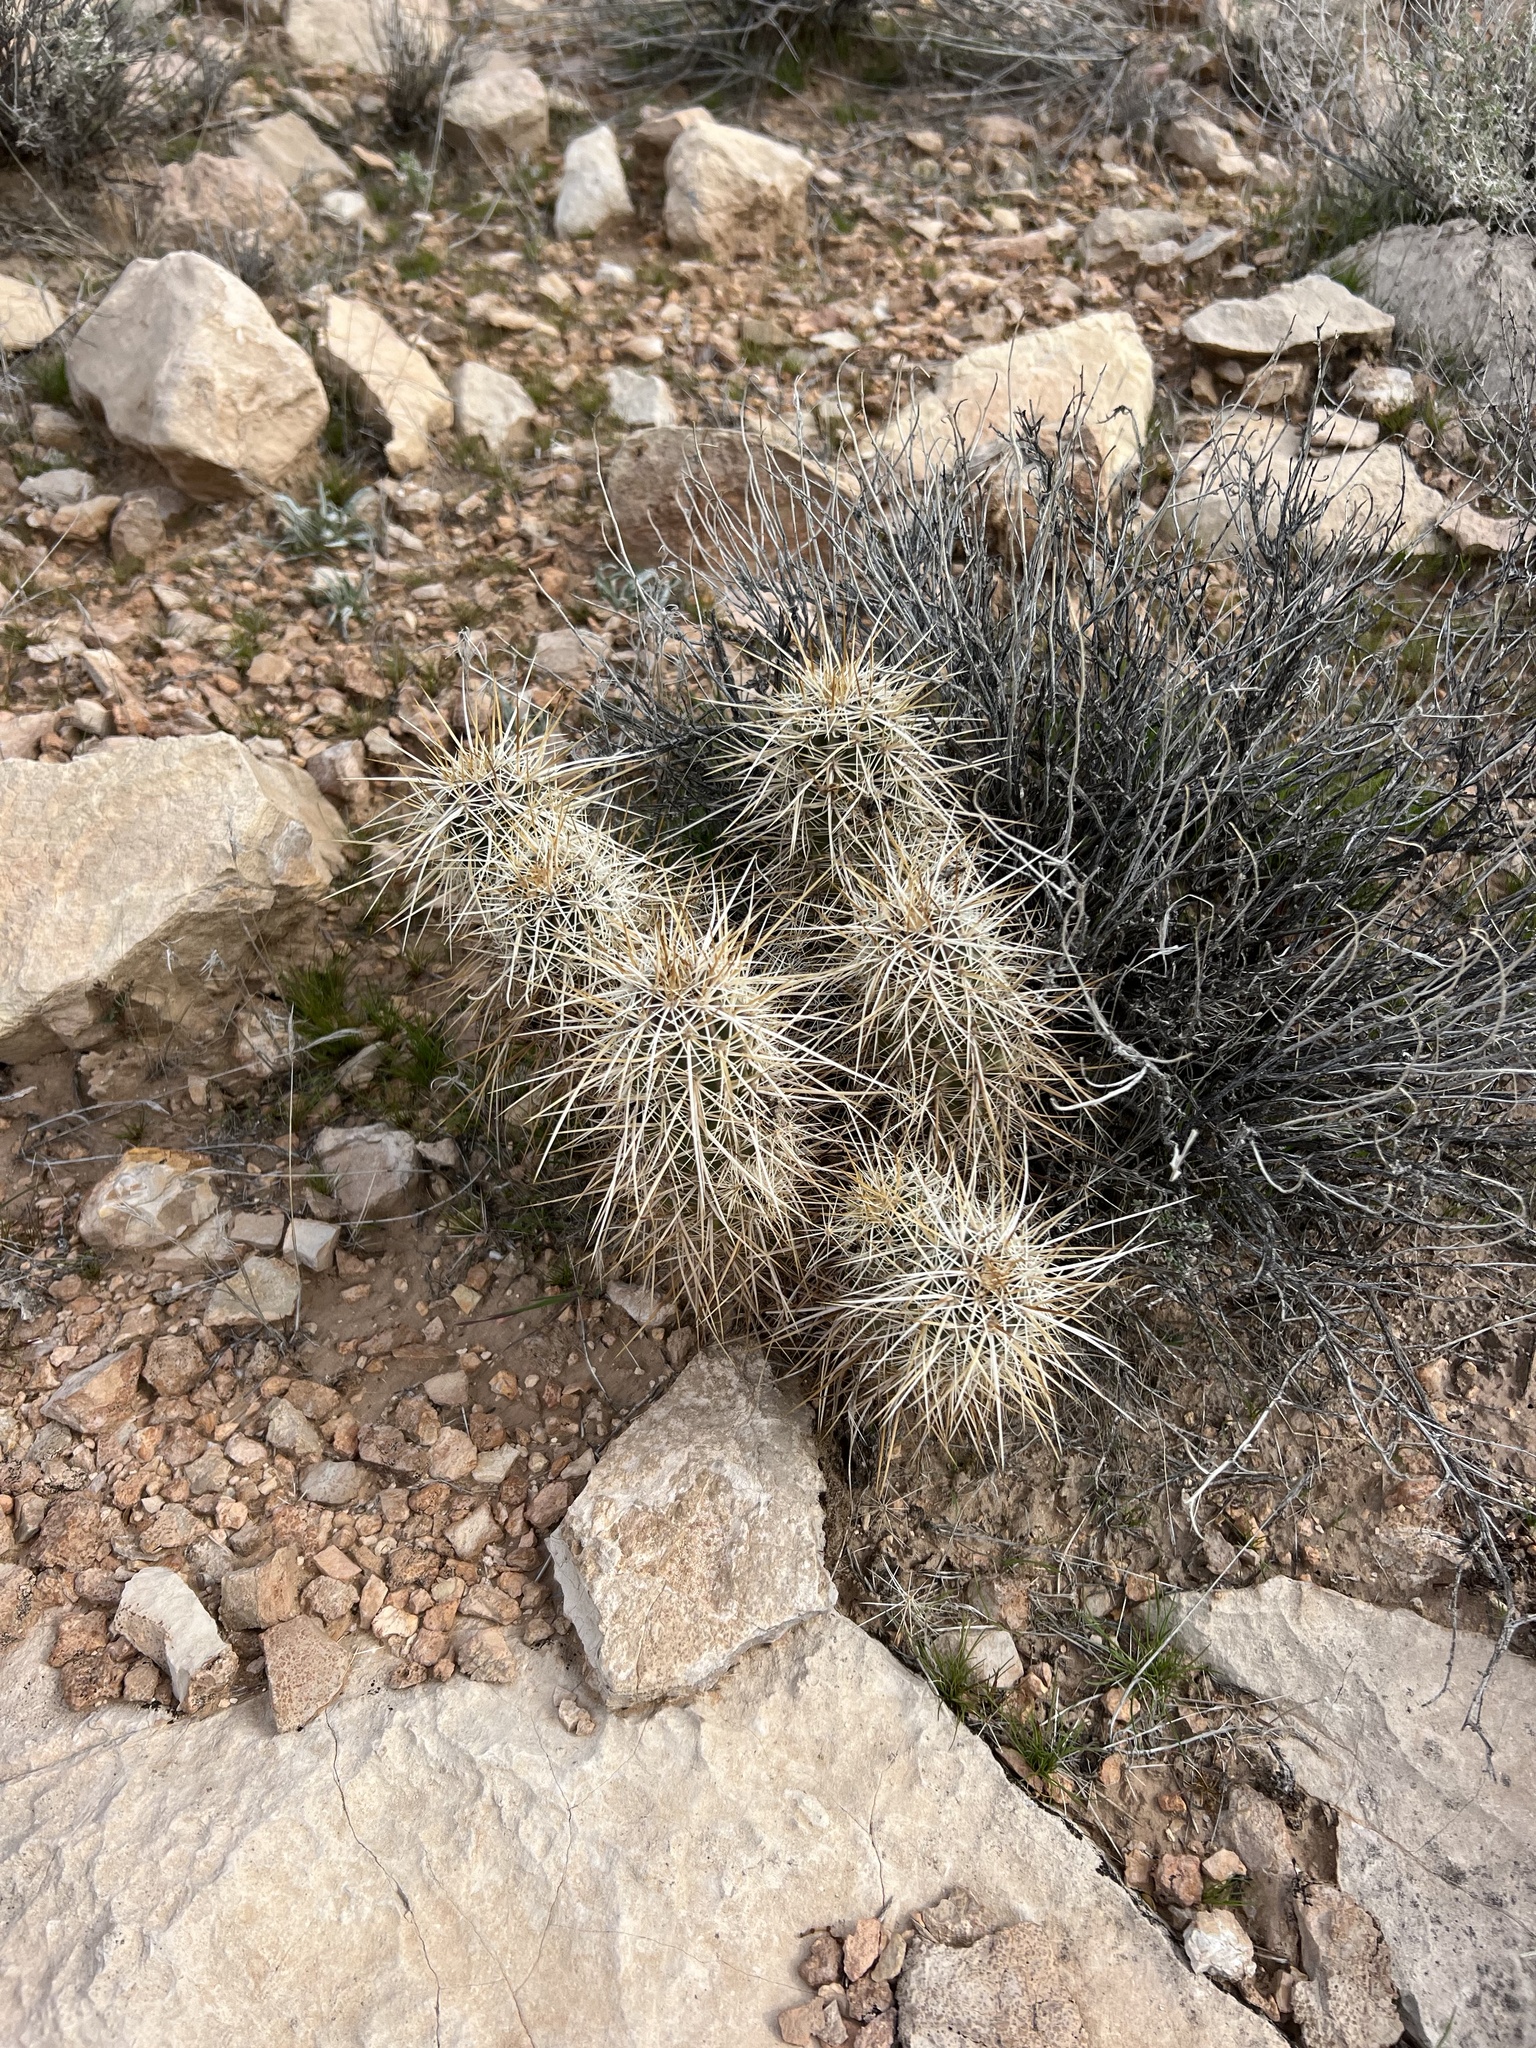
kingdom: Plantae
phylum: Tracheophyta
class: Magnoliopsida
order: Caryophyllales
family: Cactaceae
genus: Echinocereus
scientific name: Echinocereus engelmannii
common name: Engelmann's hedgehog cactus
